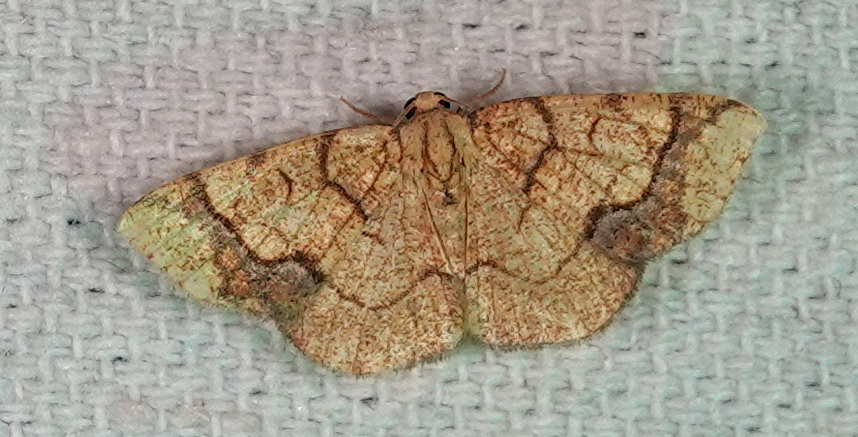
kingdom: Animalia
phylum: Arthropoda
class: Insecta
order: Lepidoptera
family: Geometridae
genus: Nematocampa
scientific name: Nematocampa arenosa
